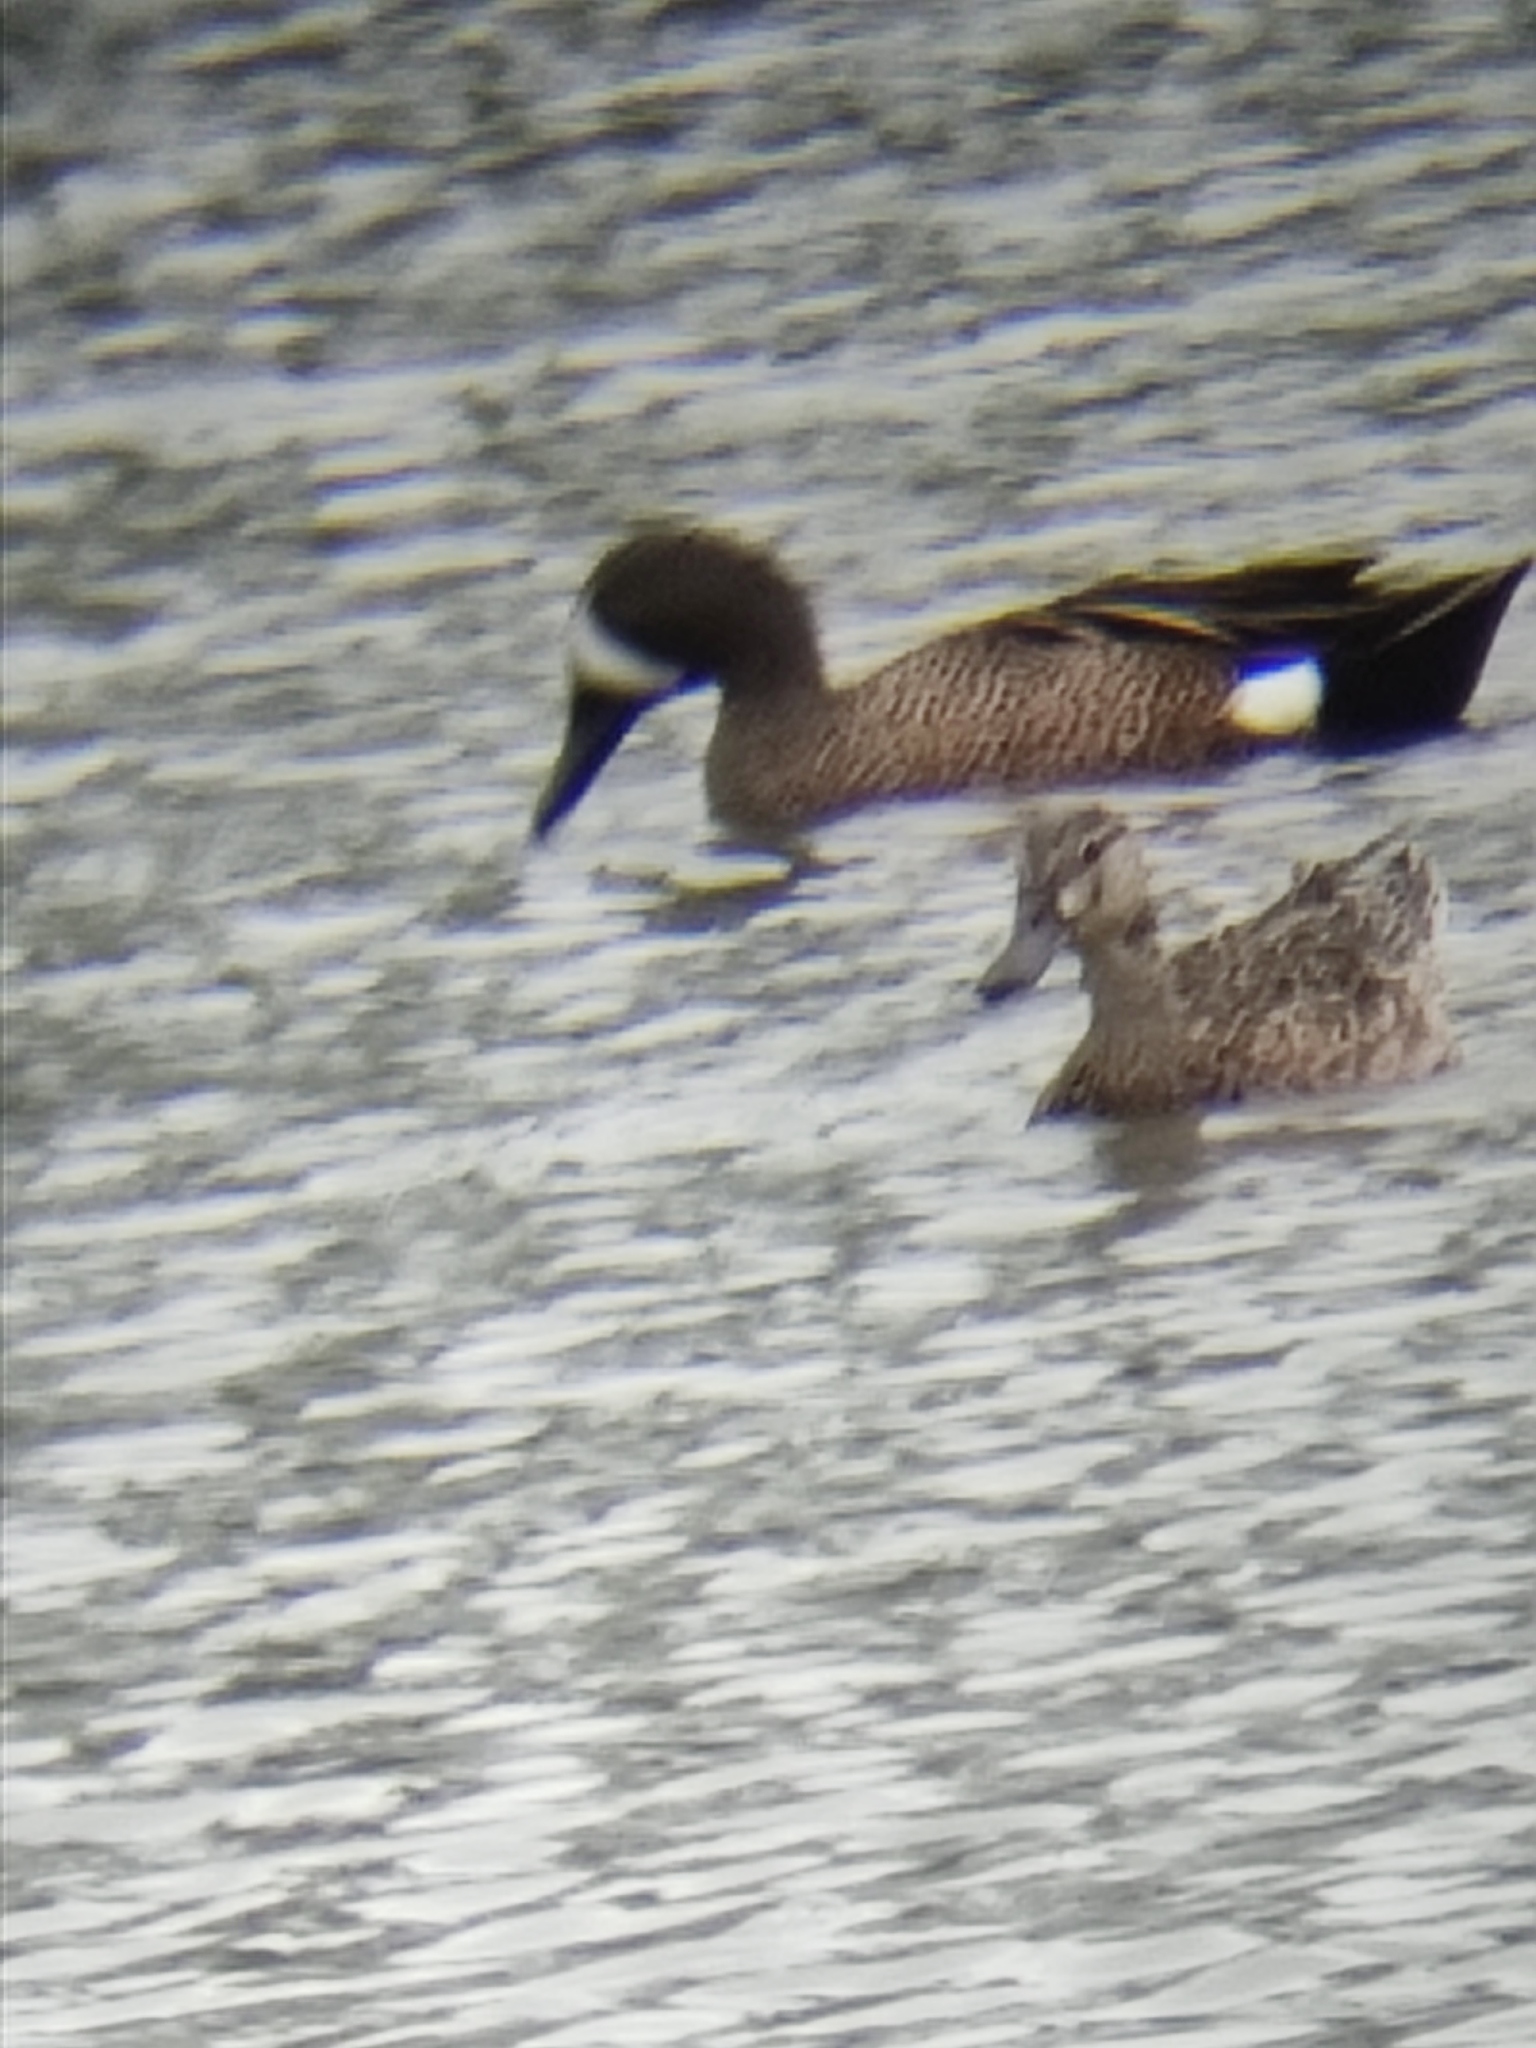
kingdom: Animalia
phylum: Chordata
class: Aves
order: Anseriformes
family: Anatidae
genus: Spatula
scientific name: Spatula discors
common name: Blue-winged teal
